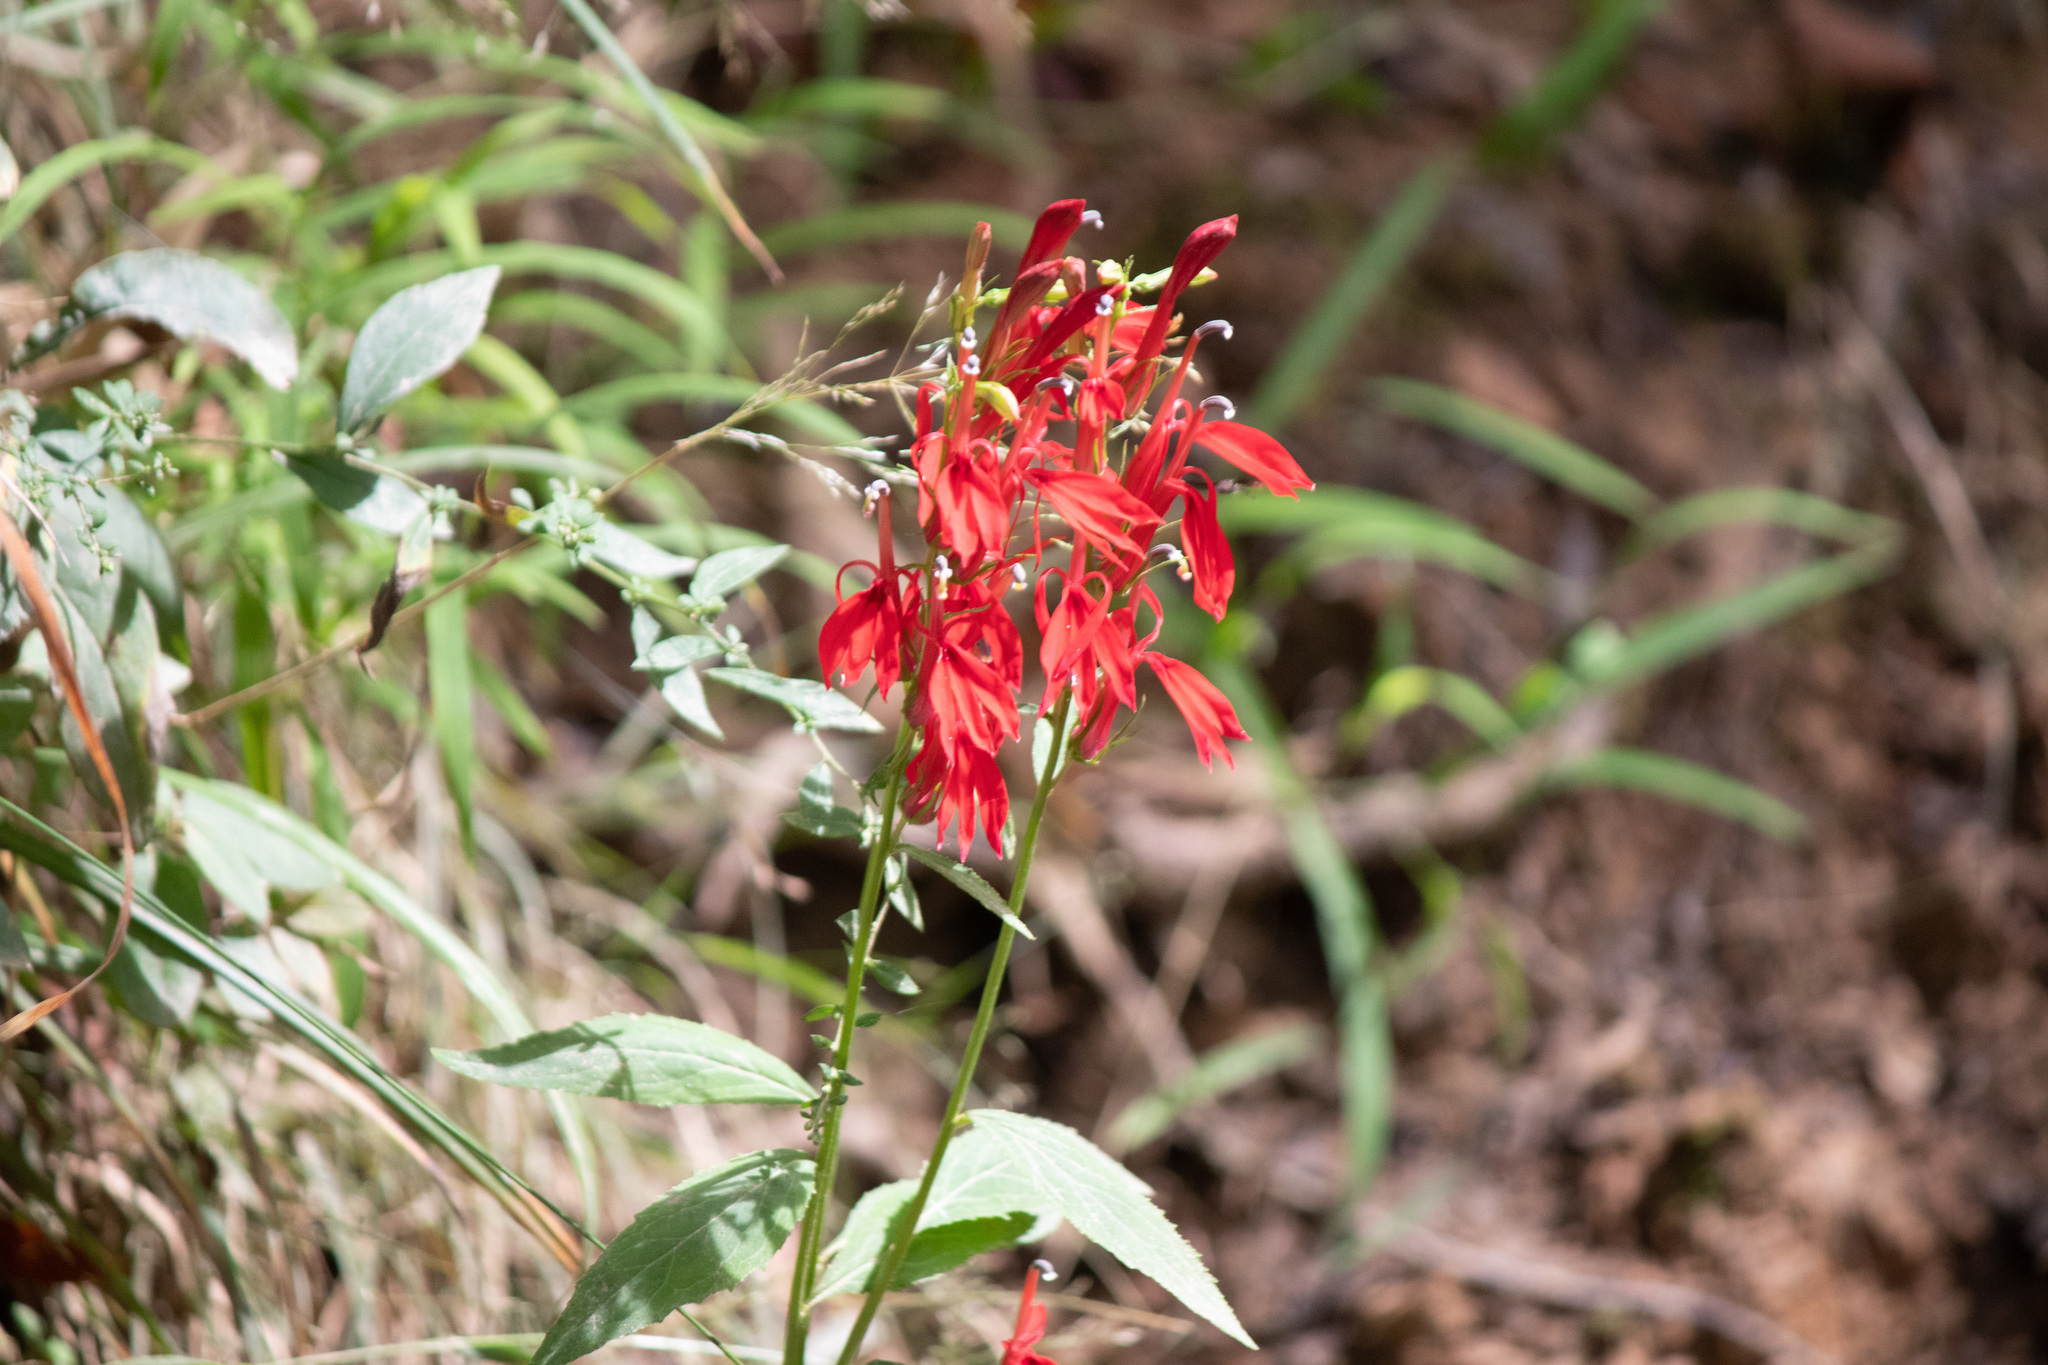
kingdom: Plantae
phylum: Tracheophyta
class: Magnoliopsida
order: Asterales
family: Campanulaceae
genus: Lobelia
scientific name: Lobelia cardinalis
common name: Cardinal flower
